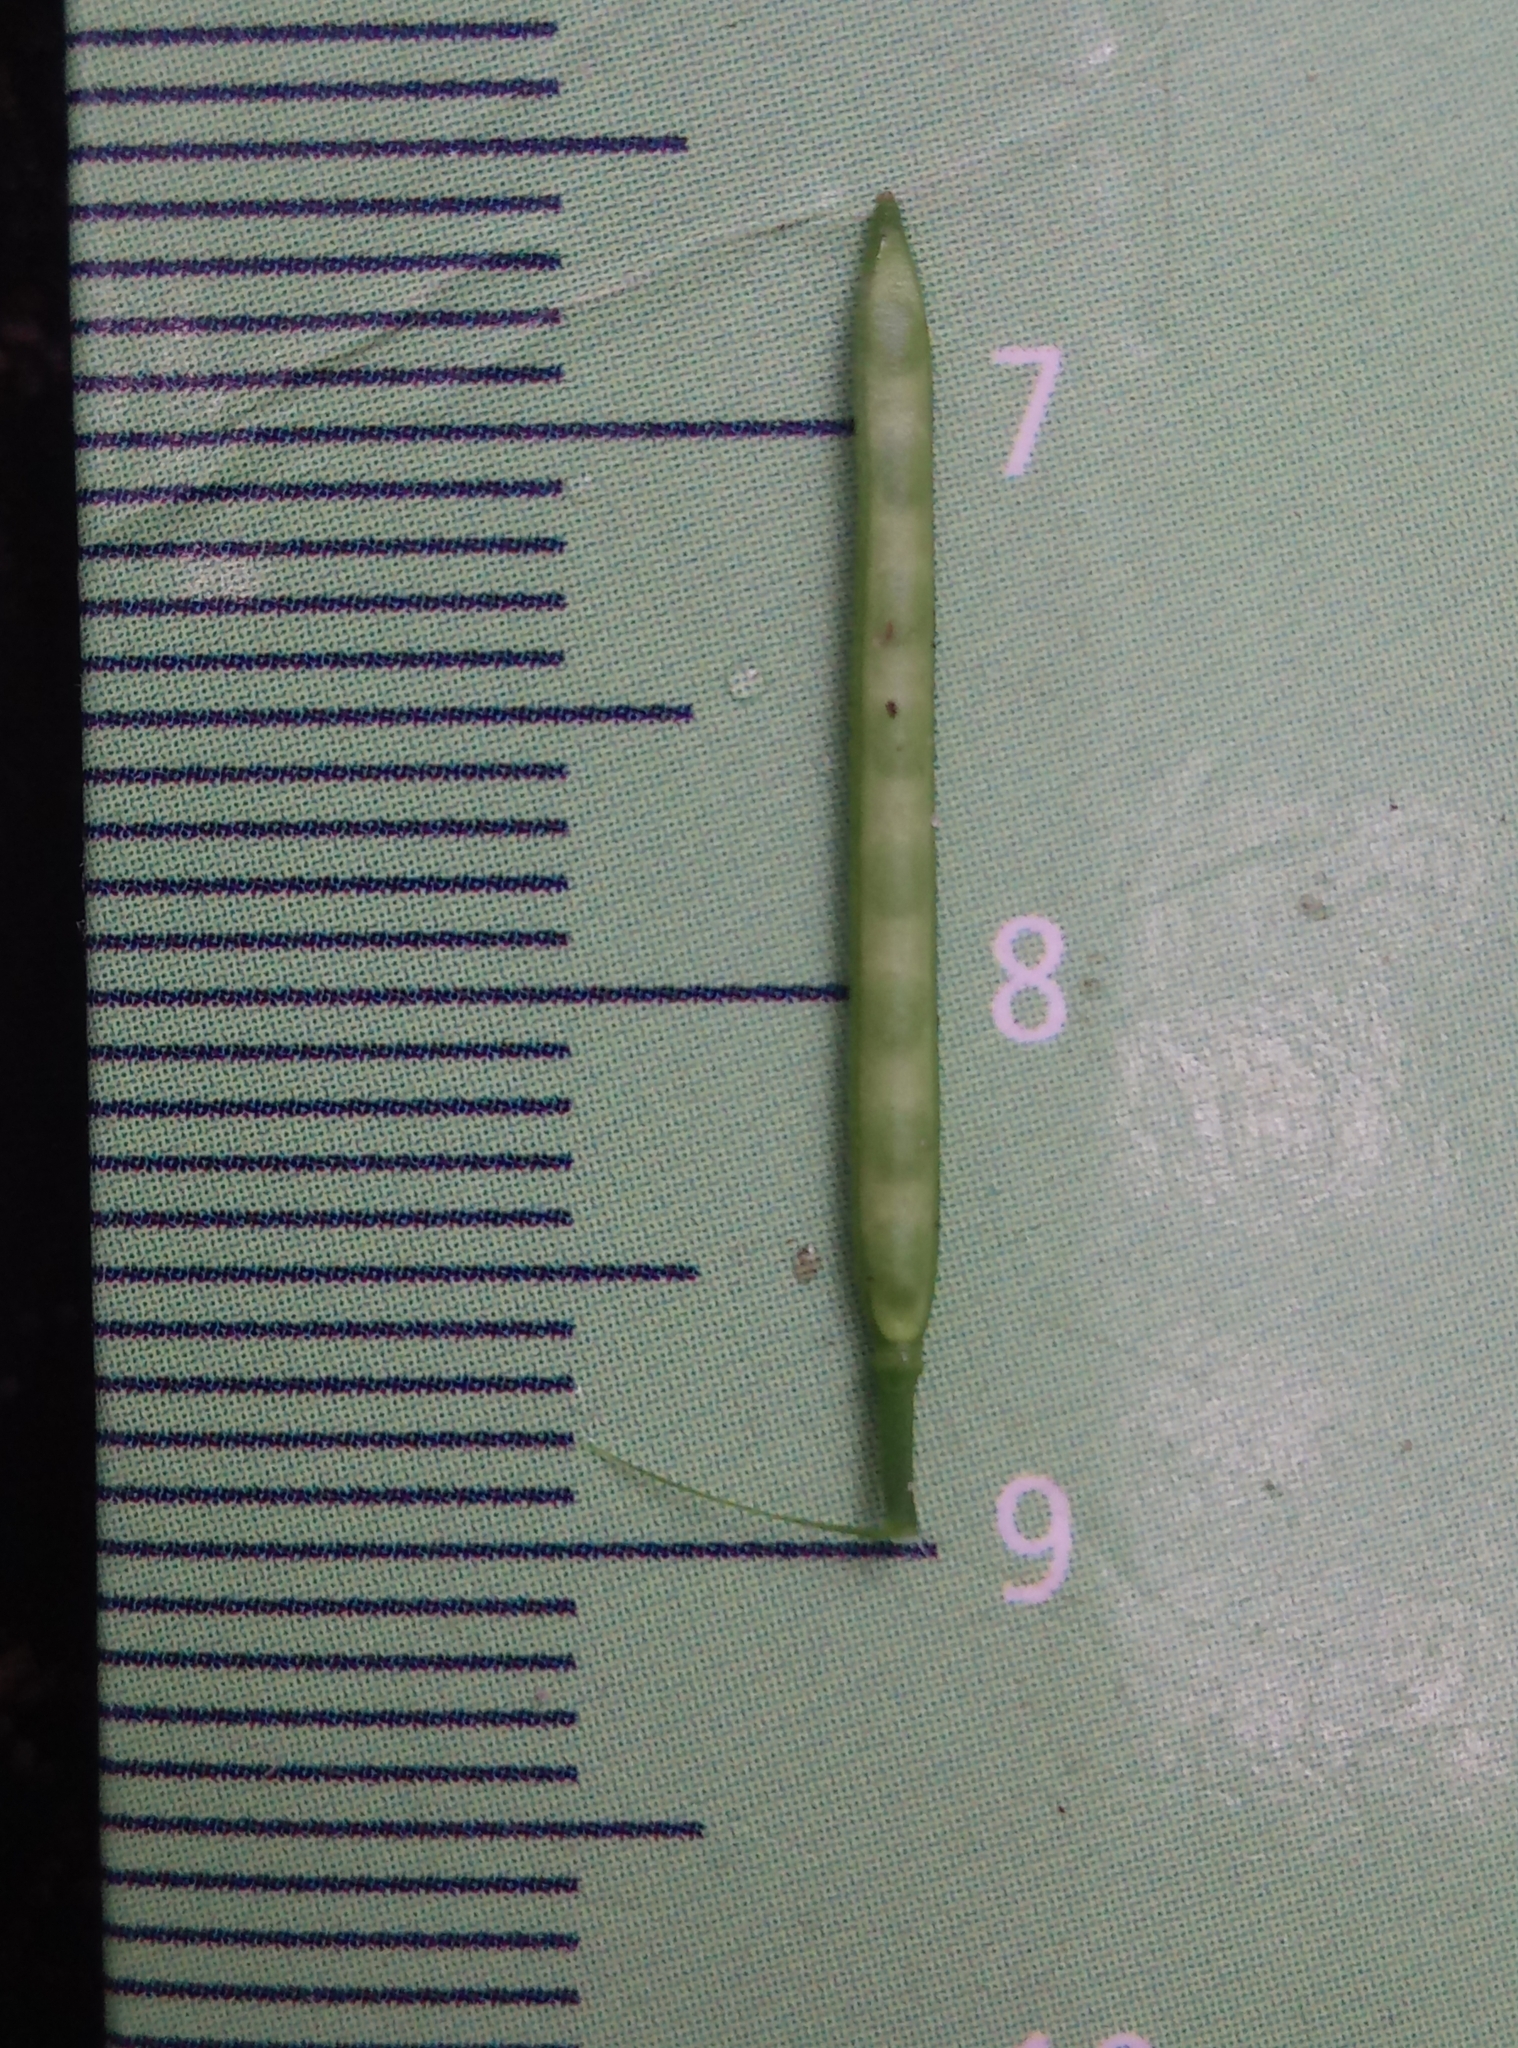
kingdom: Plantae
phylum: Tracheophyta
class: Magnoliopsida
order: Brassicales
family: Brassicaceae
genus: Cardamine
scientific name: Cardamine impatiens
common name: Narrow-leaved bitter-cress
